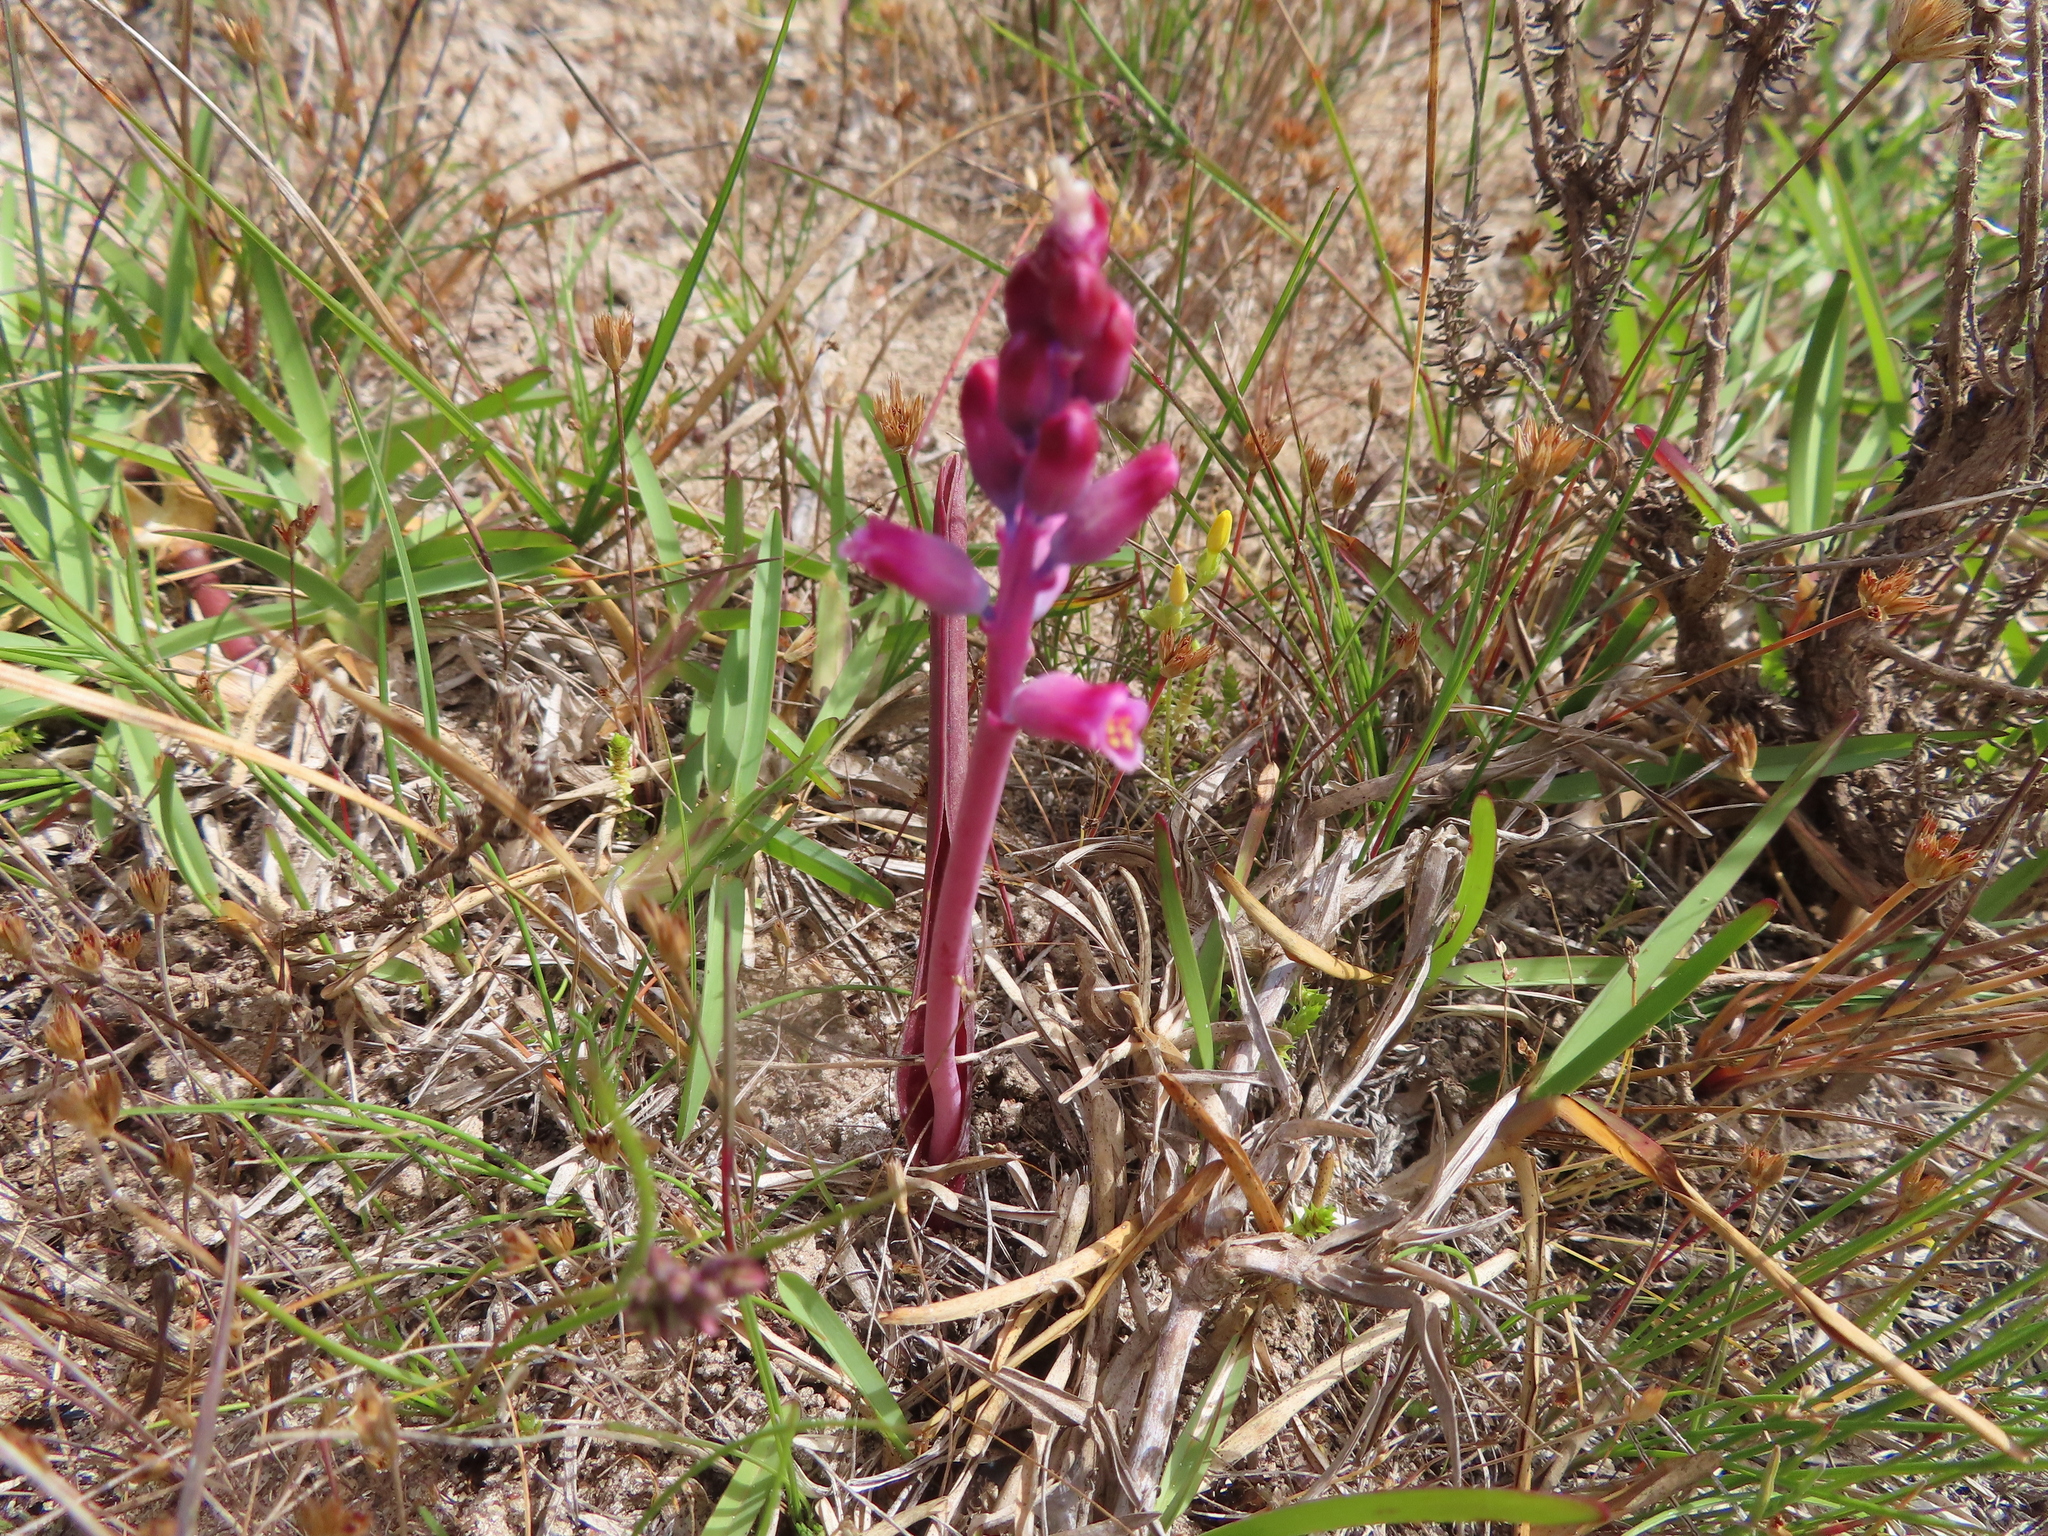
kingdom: Plantae
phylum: Tracheophyta
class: Liliopsida
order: Asparagales
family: Asparagaceae
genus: Lachenalia
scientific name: Lachenalia rosea
